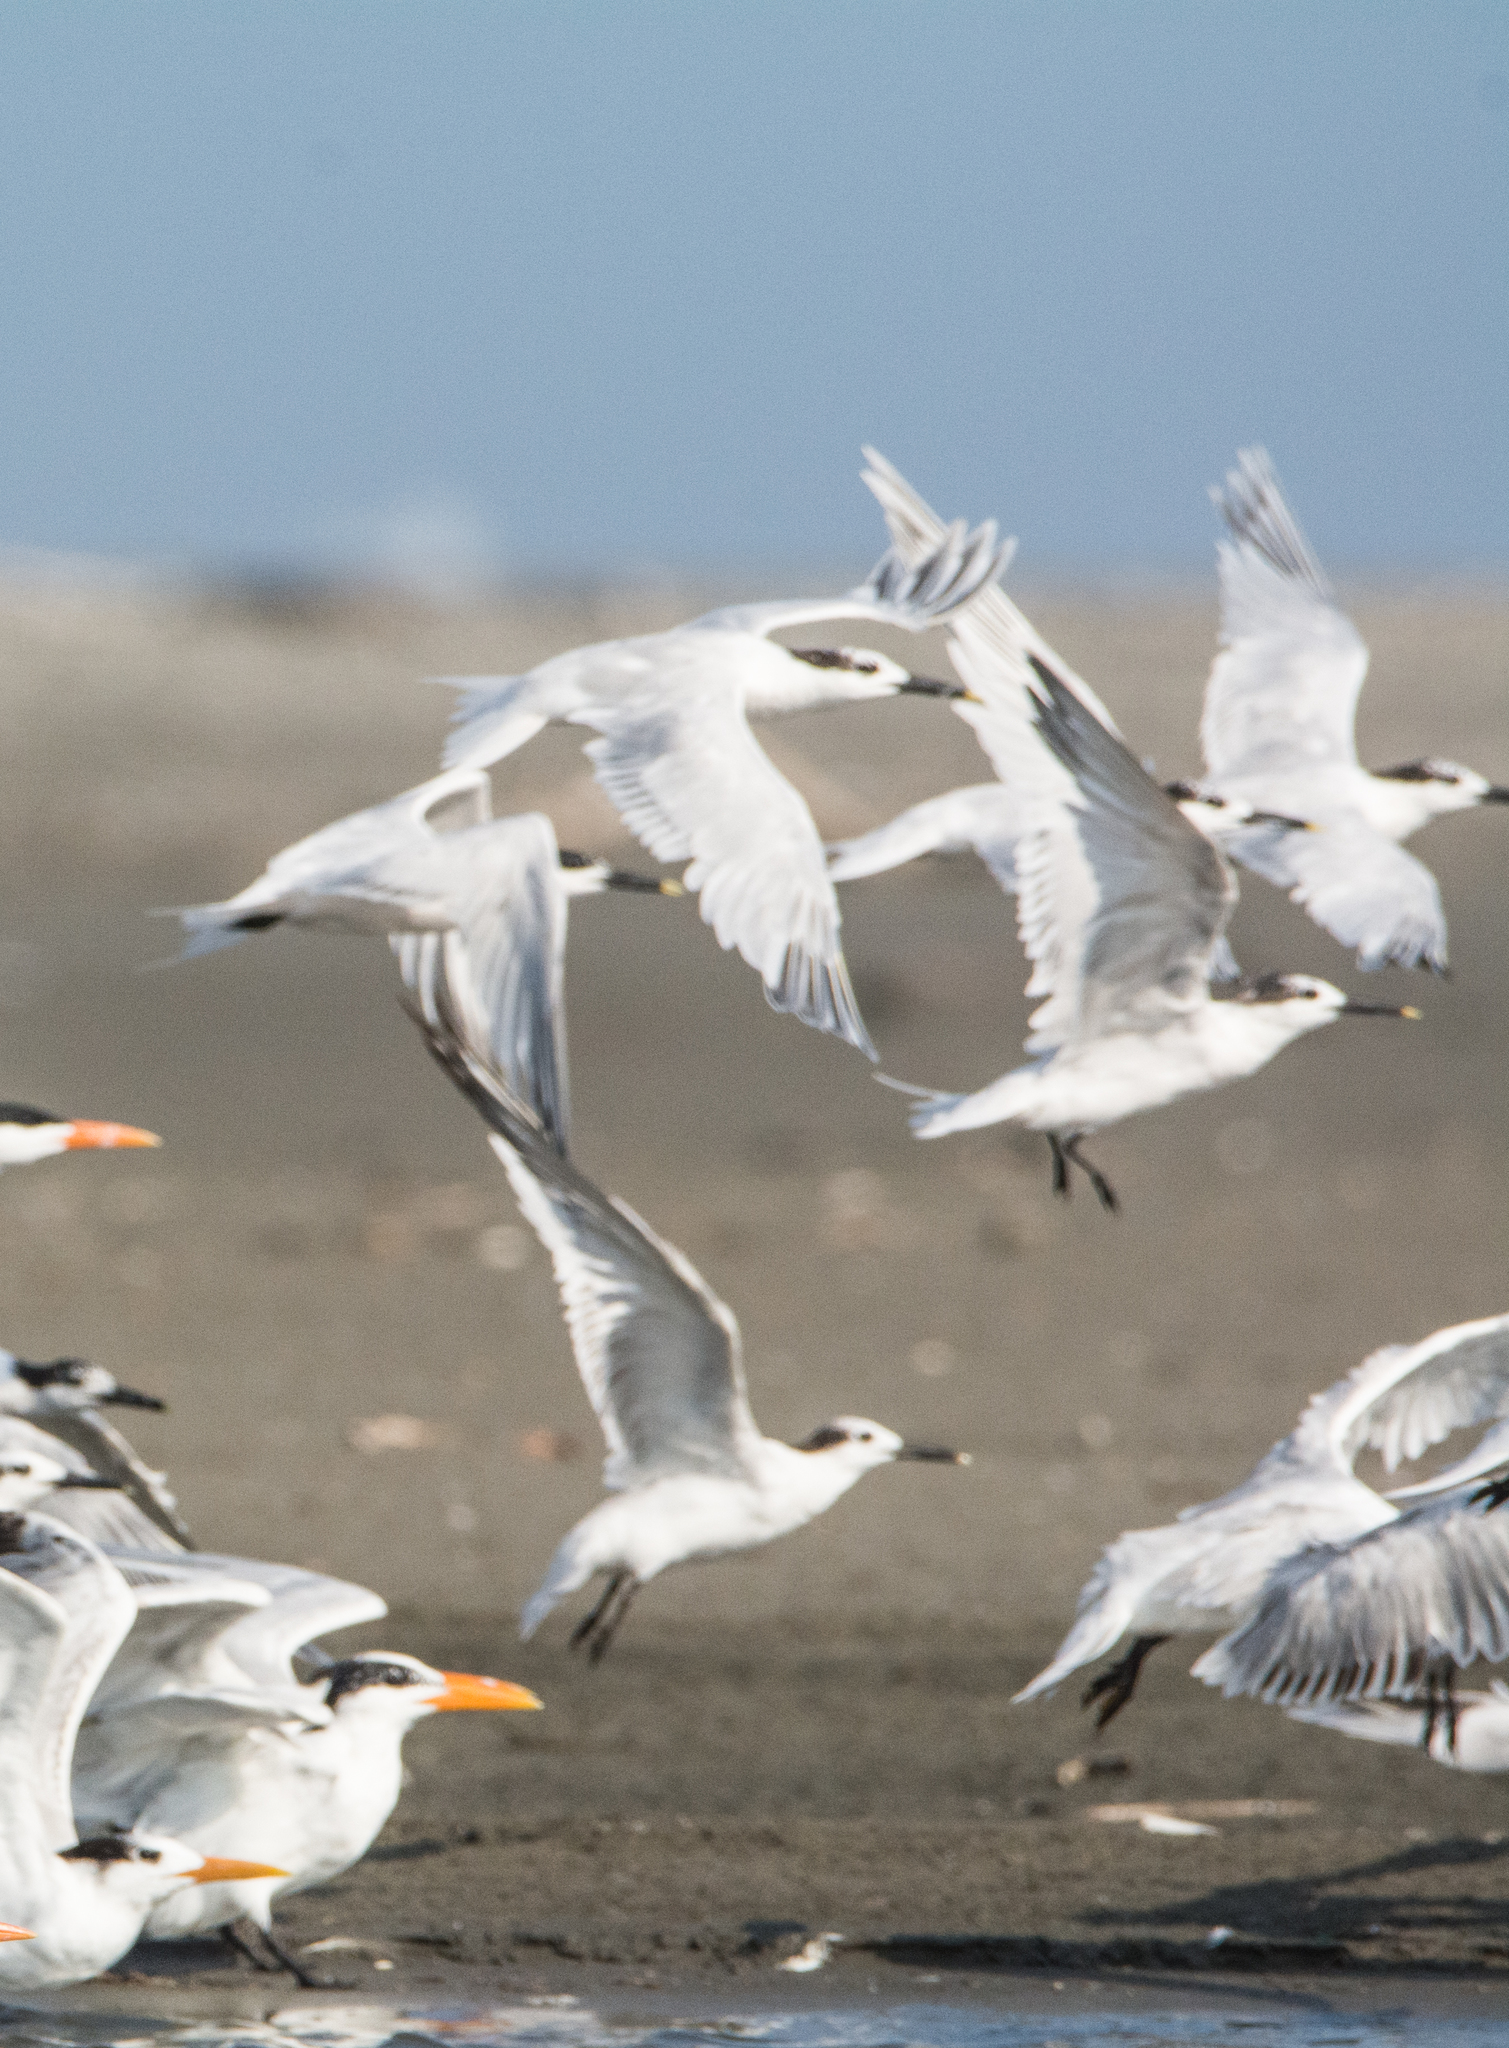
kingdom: Animalia
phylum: Chordata
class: Aves
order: Charadriiformes
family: Laridae
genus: Thalasseus
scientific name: Thalasseus sandvicensis
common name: Sandwich tern
